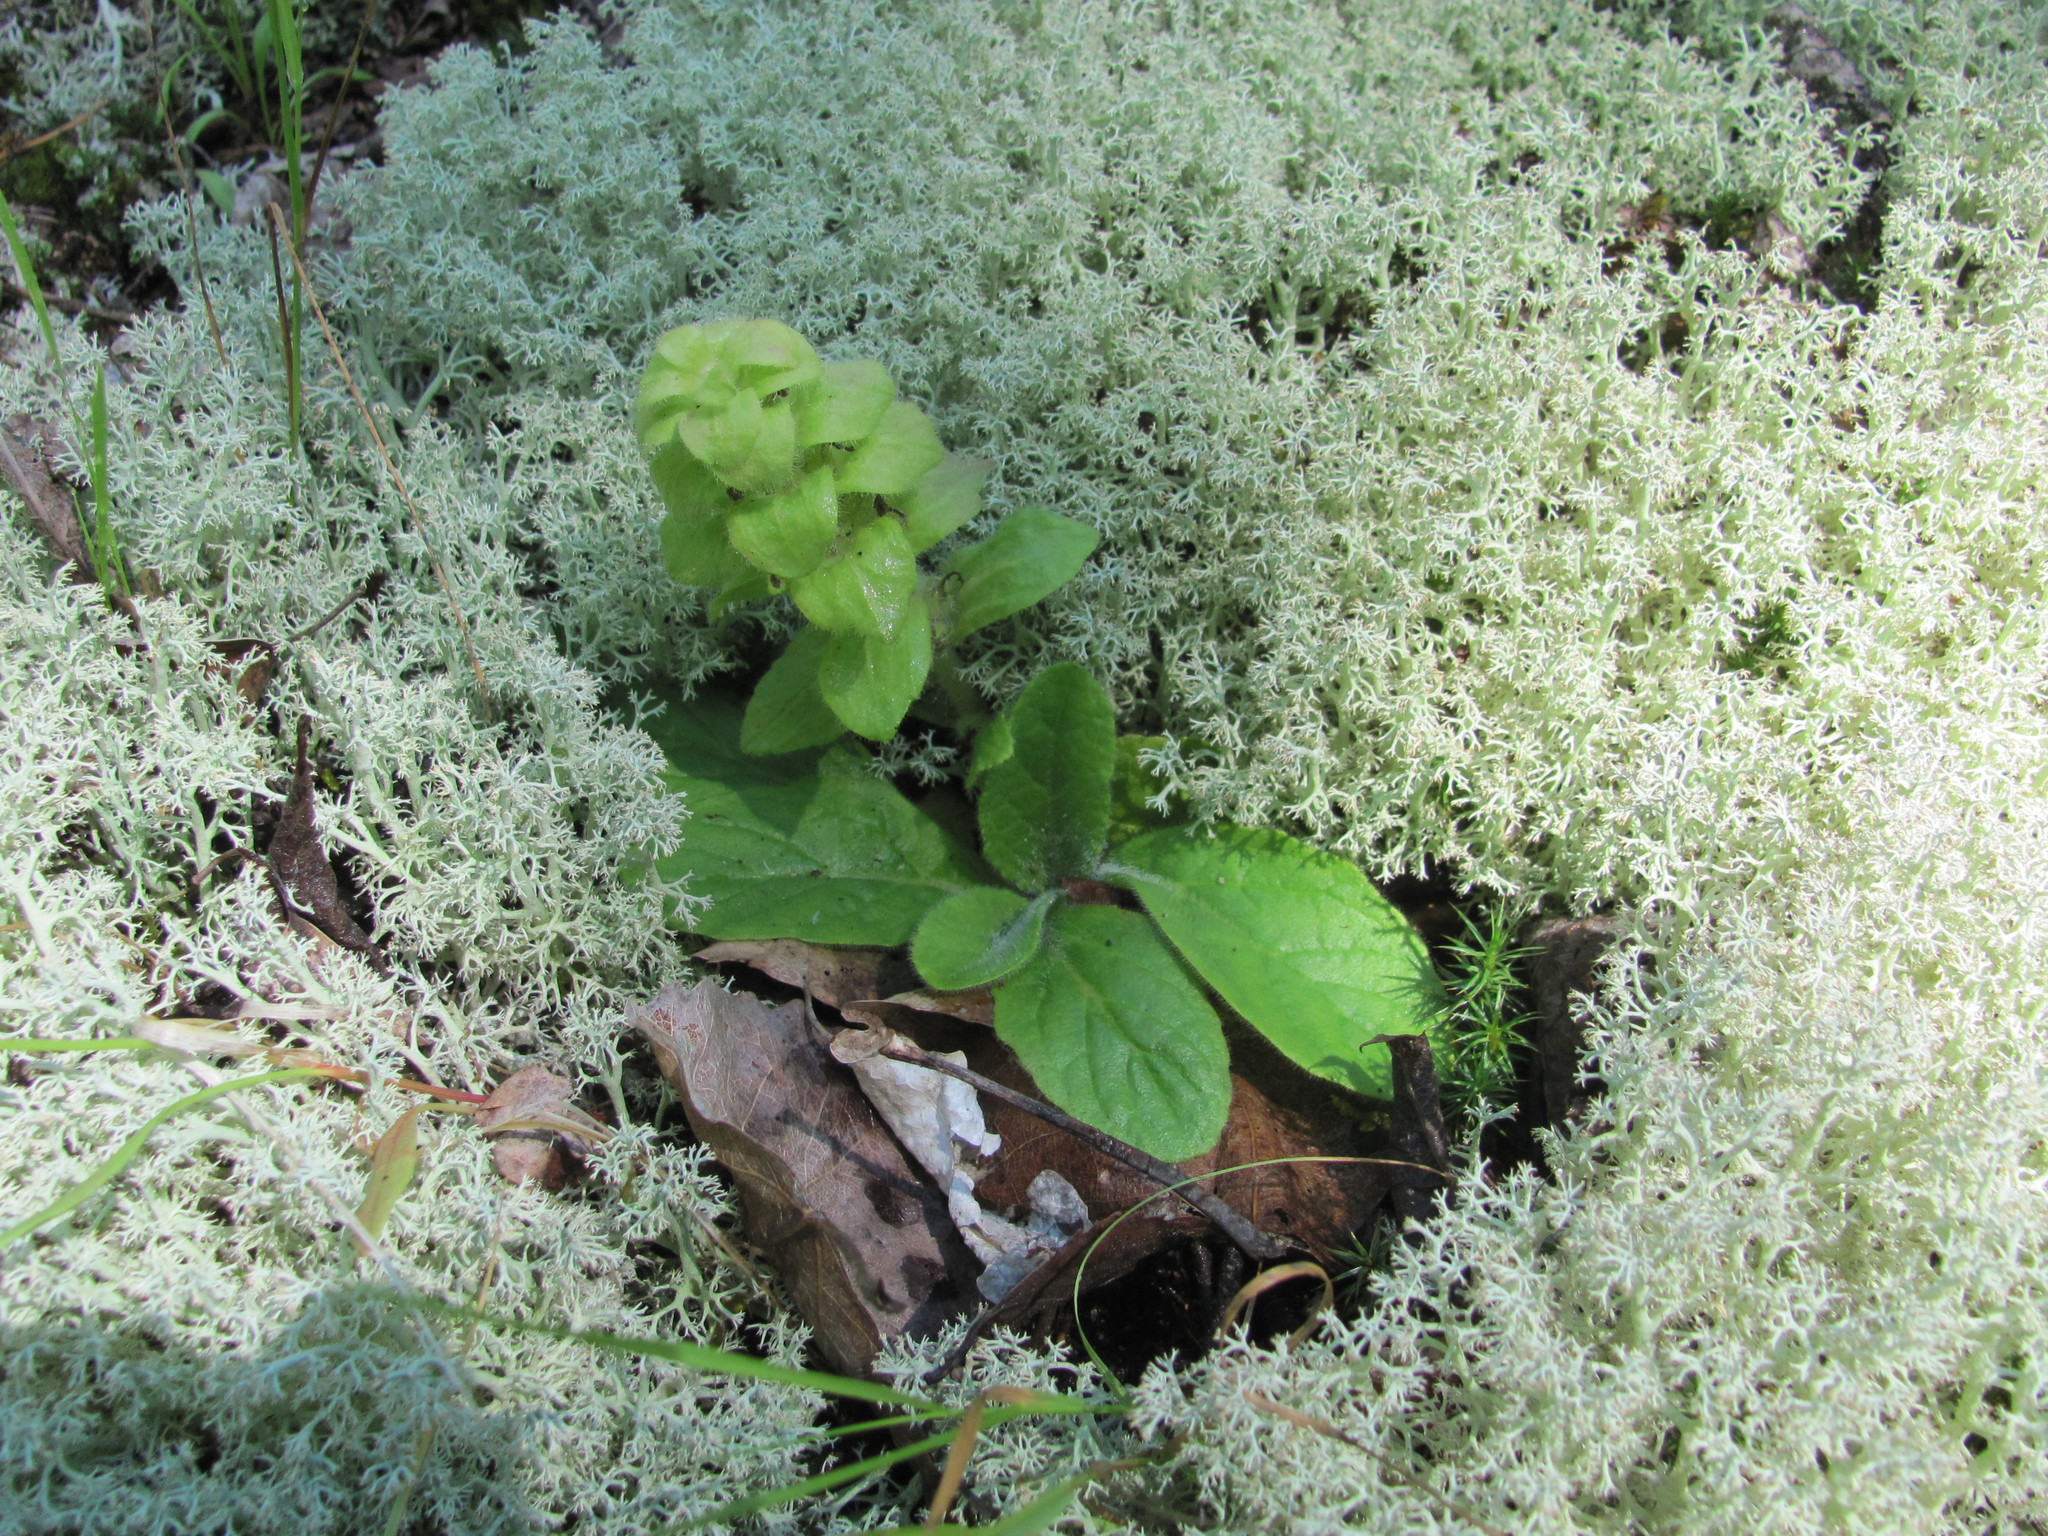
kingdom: Plantae
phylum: Tracheophyta
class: Magnoliopsida
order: Lamiales
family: Lamiaceae
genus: Ajuga
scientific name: Ajuga pyramidalis
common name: Pyramid bugle
